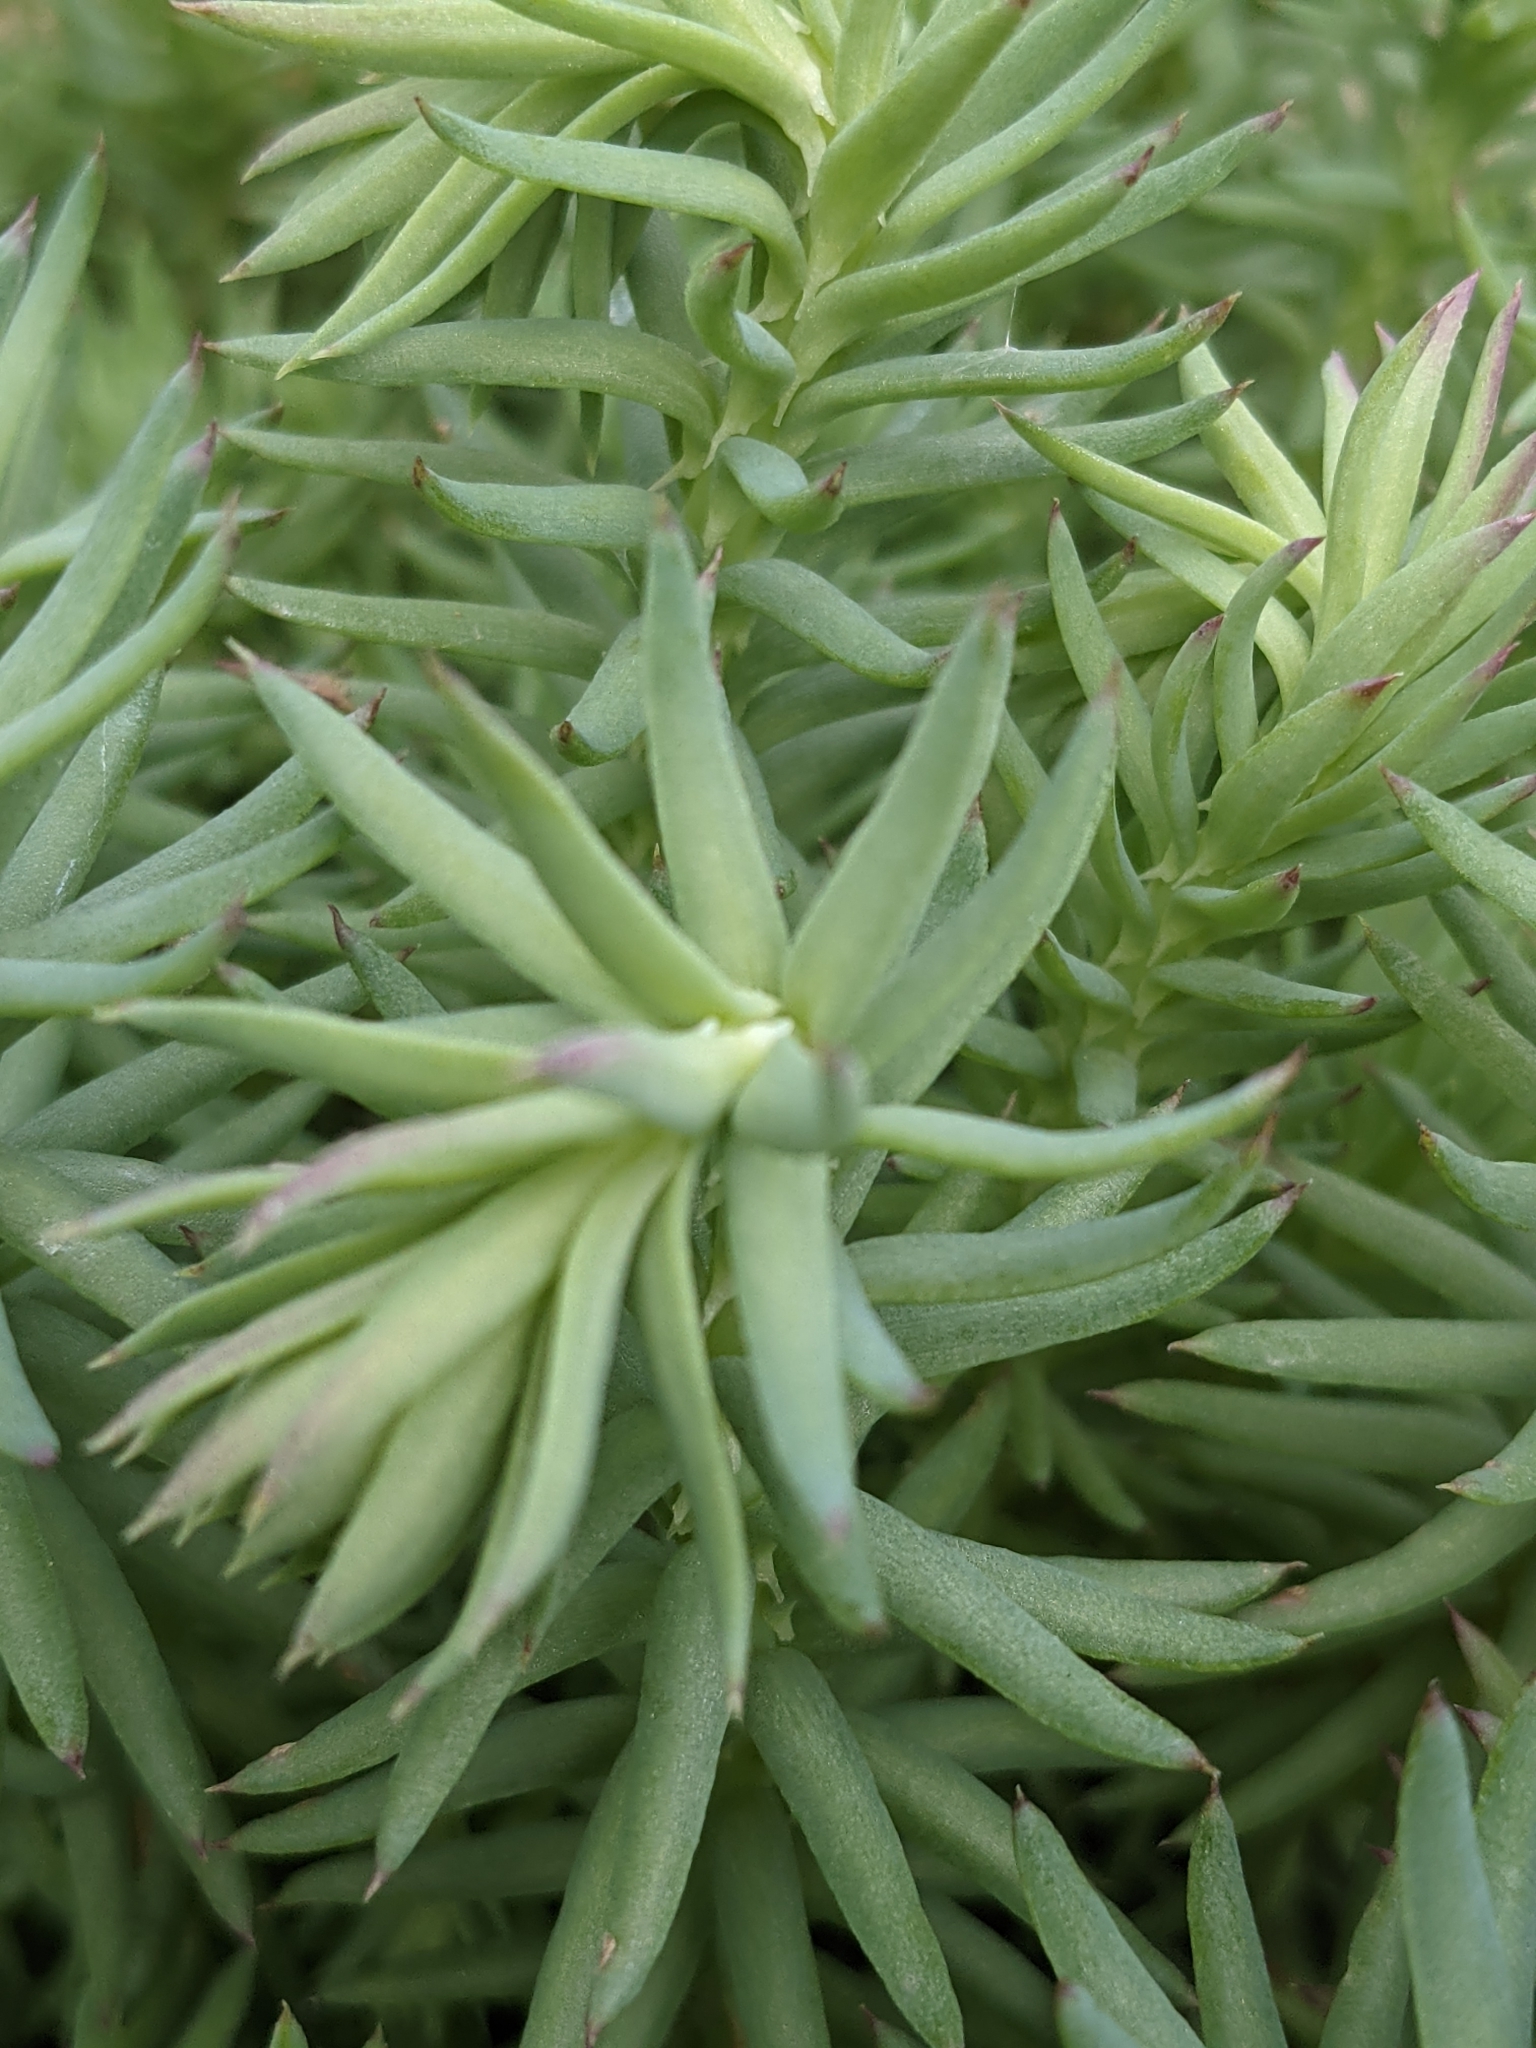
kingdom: Plantae
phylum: Tracheophyta
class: Magnoliopsida
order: Saxifragales
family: Crassulaceae
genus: Petrosedum
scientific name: Petrosedum forsterianum
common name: Forster's stonecrop
